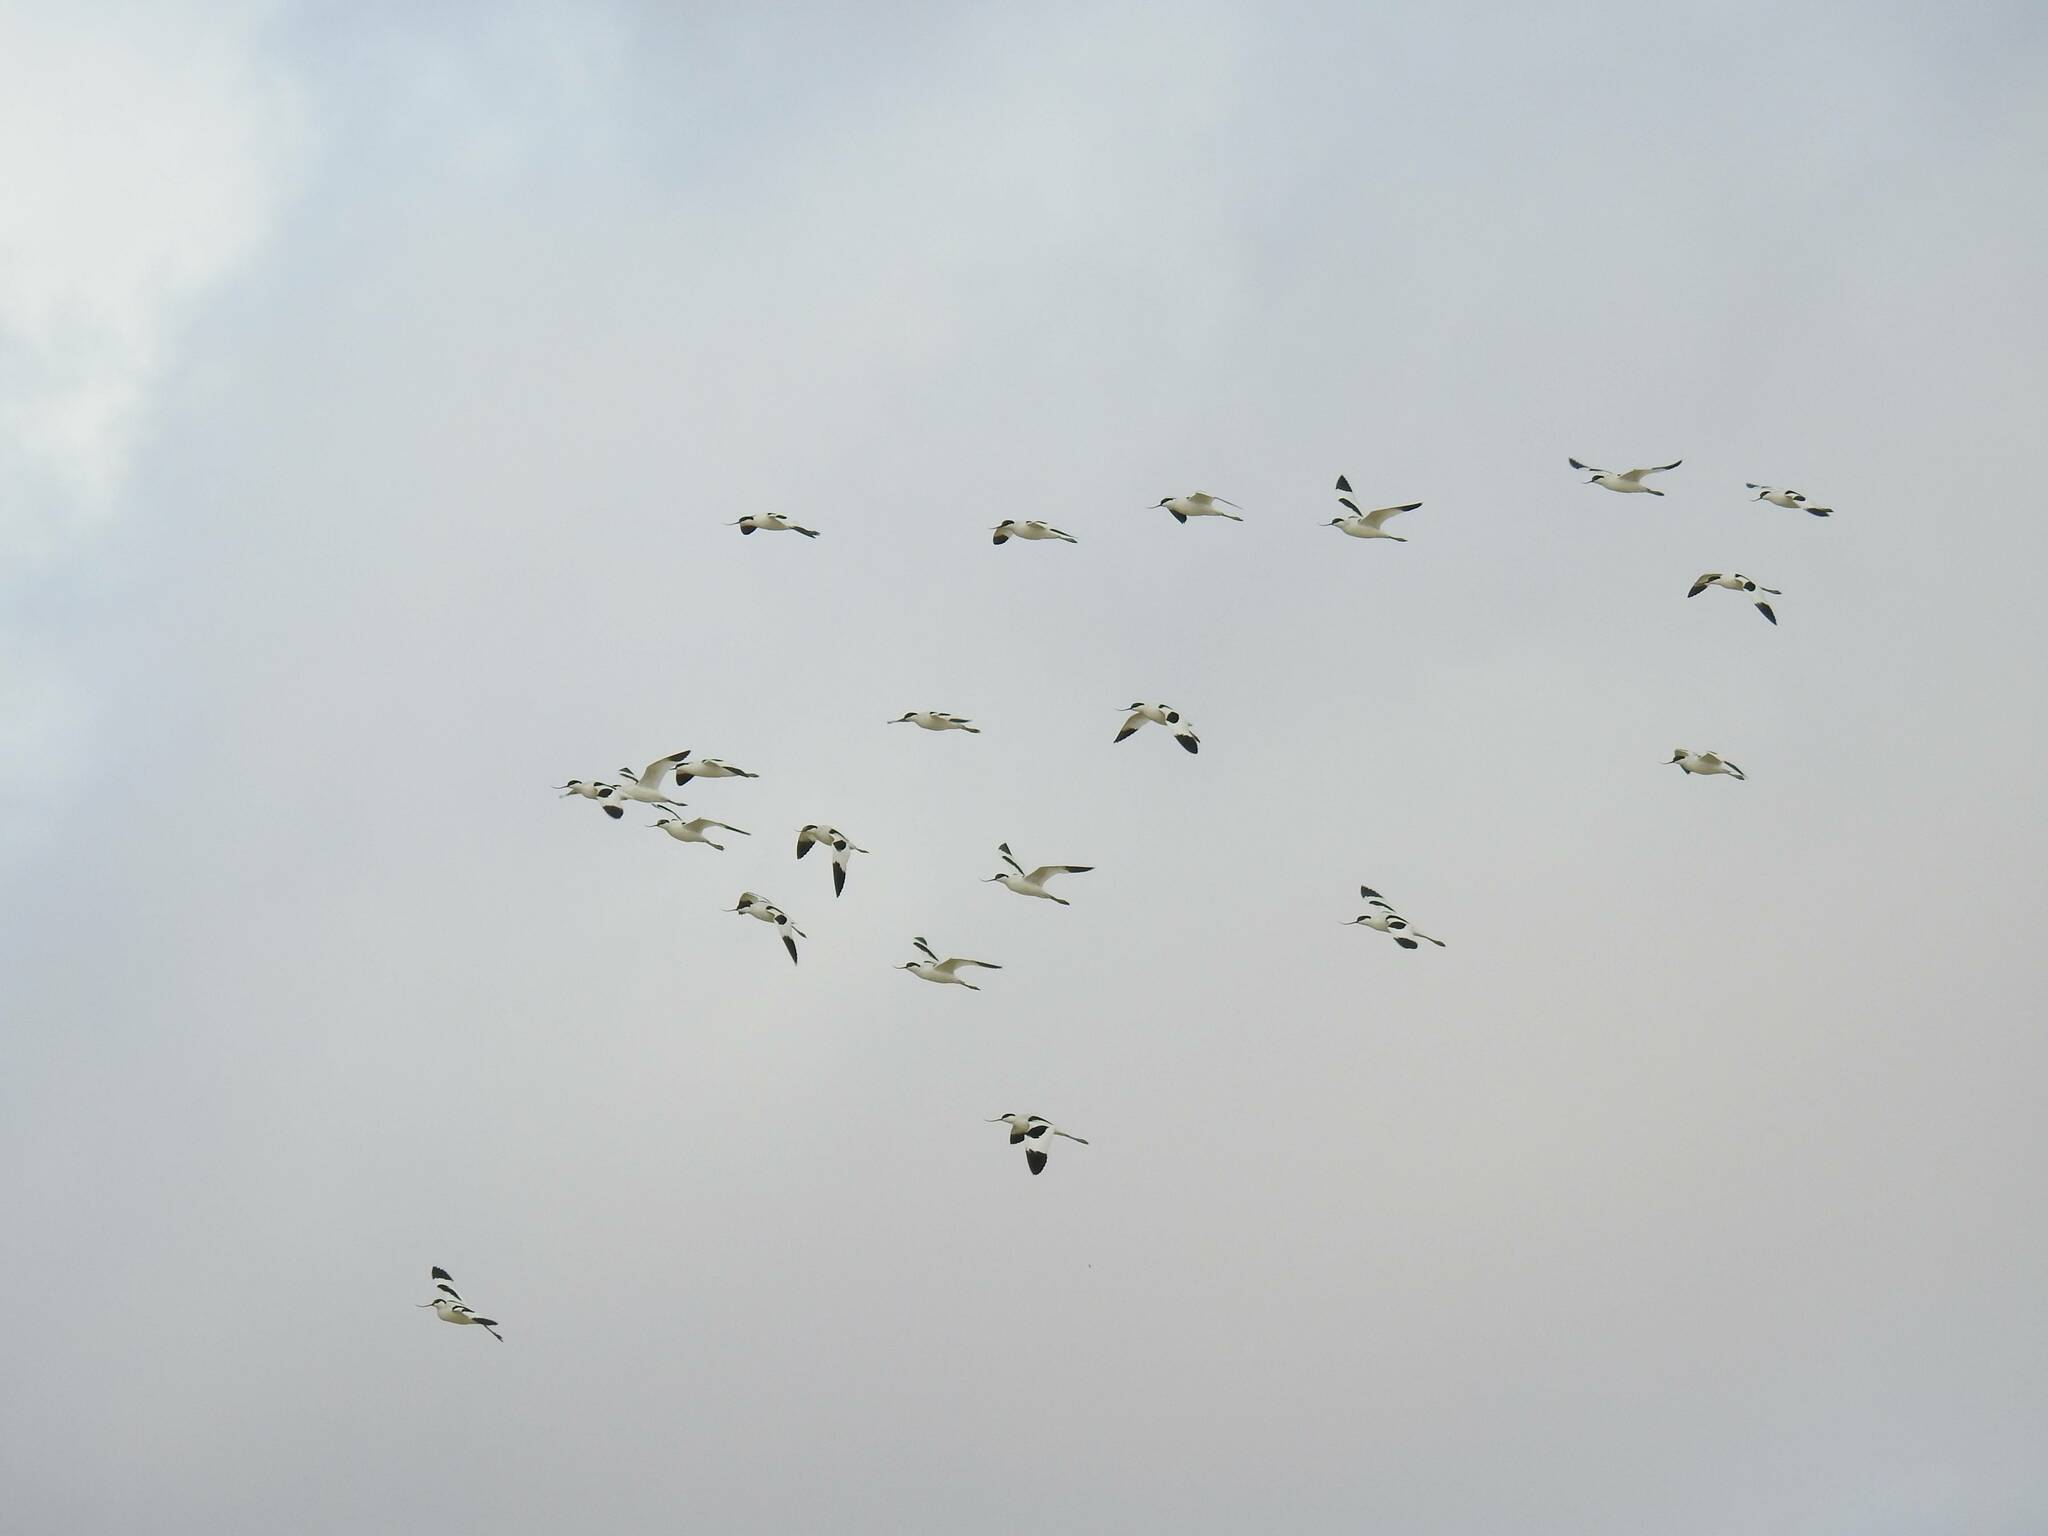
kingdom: Animalia
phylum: Chordata
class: Aves
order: Charadriiformes
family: Recurvirostridae
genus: Recurvirostra
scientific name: Recurvirostra avosetta
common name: Pied avocet
